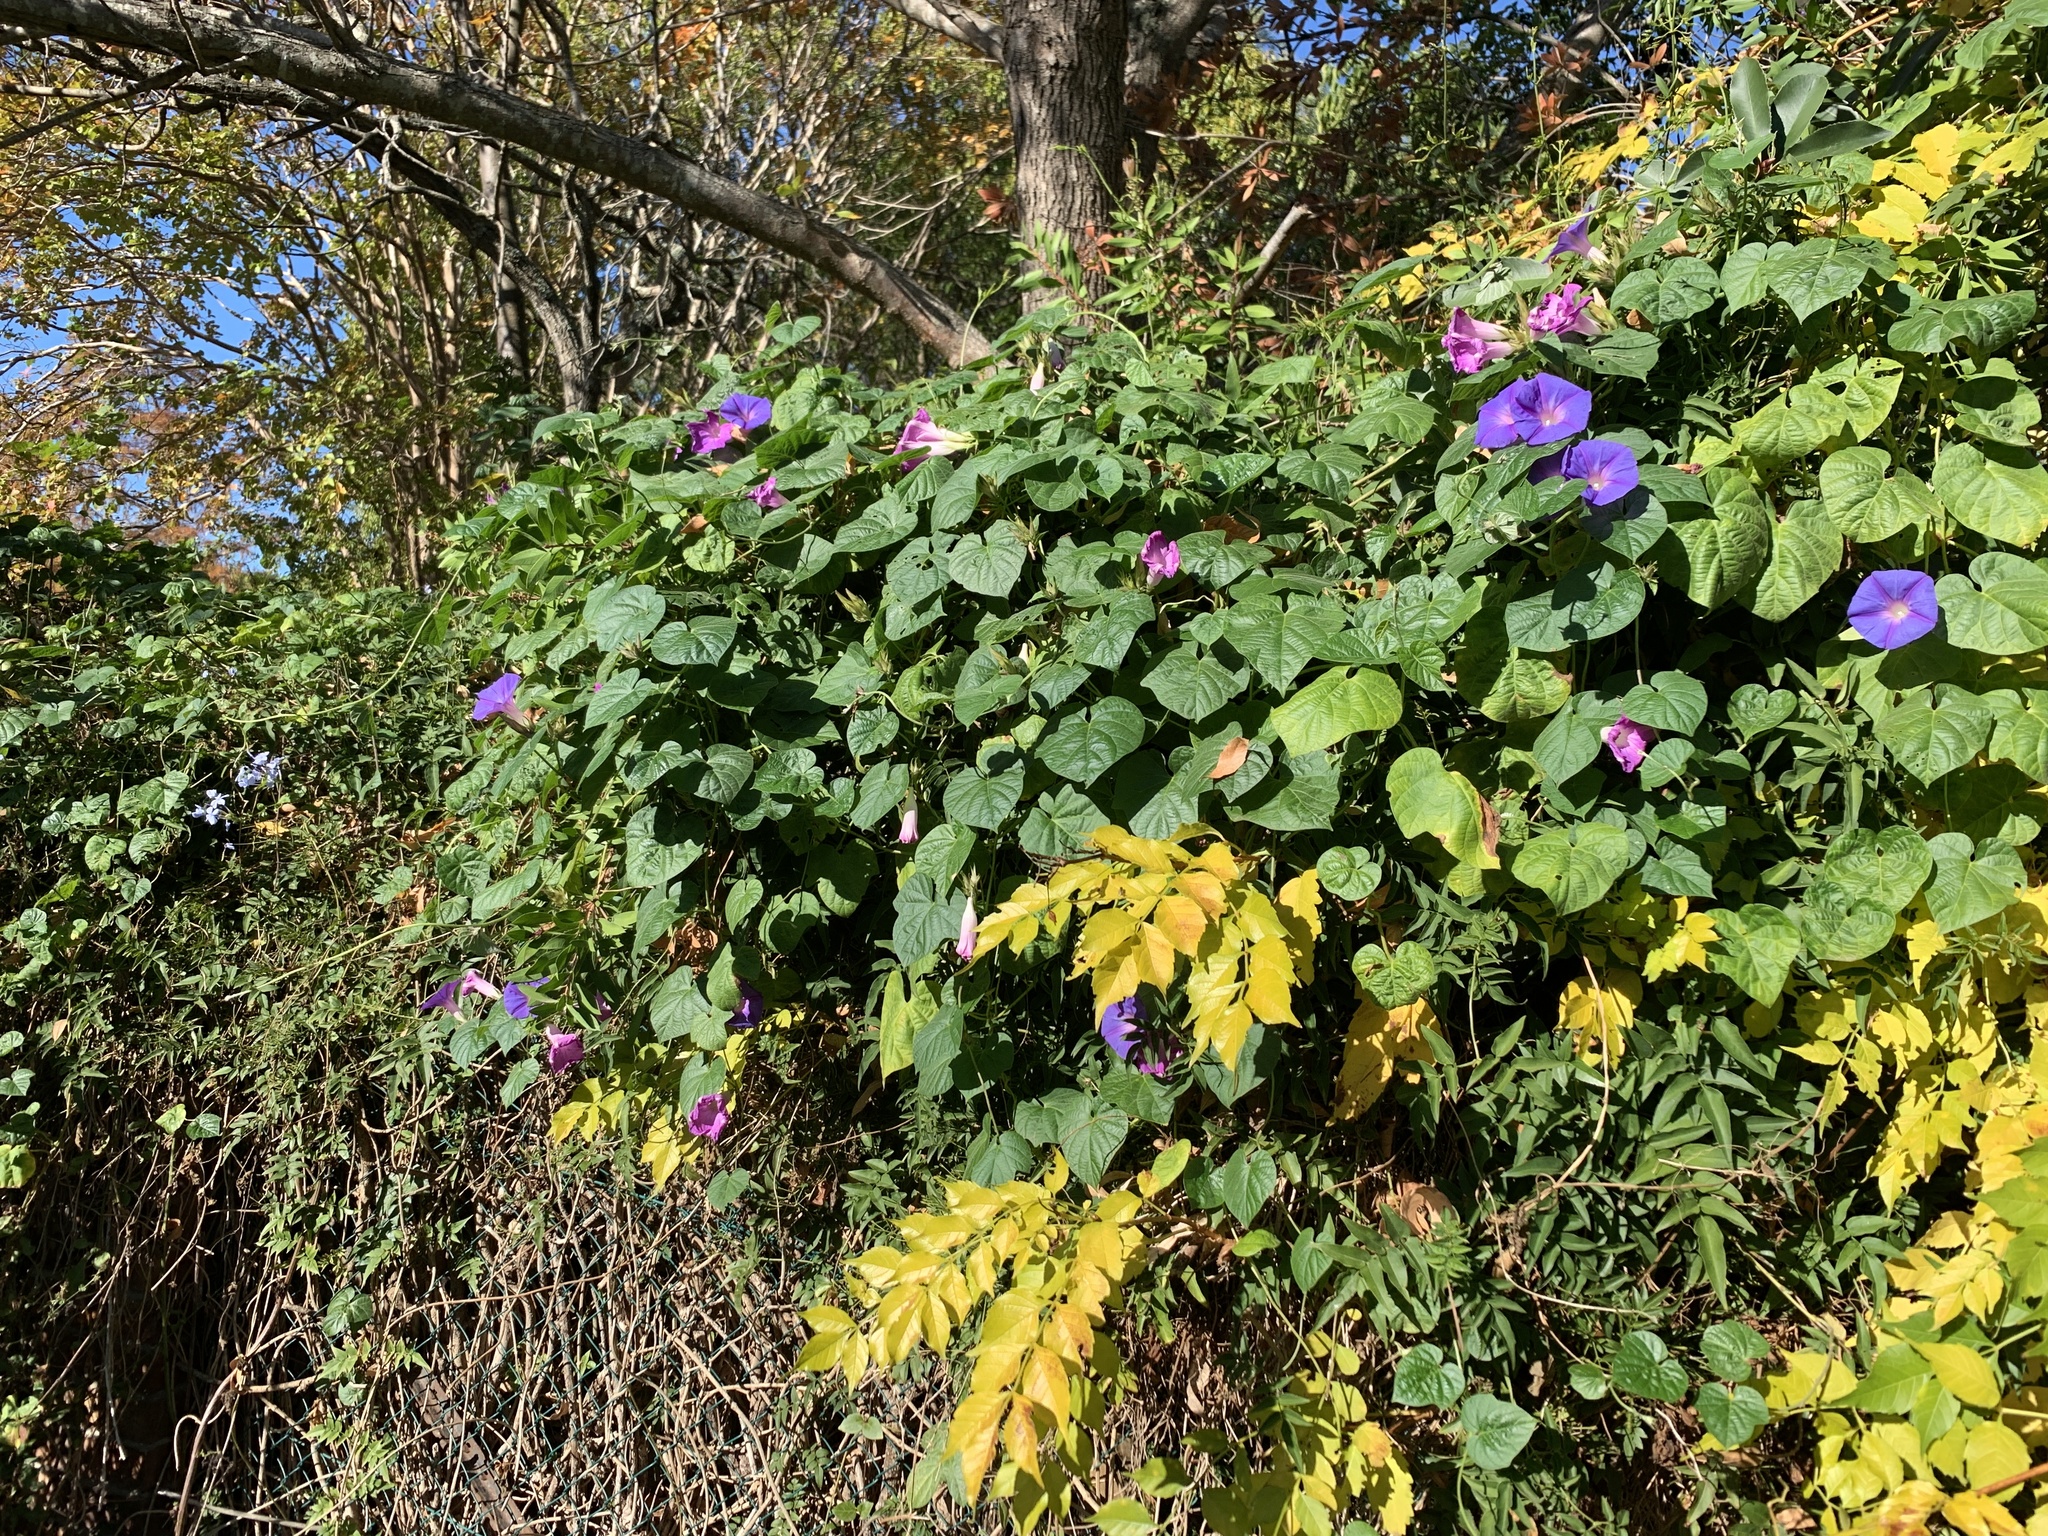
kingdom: Plantae
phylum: Tracheophyta
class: Magnoliopsida
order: Solanales
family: Convolvulaceae
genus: Ipomoea
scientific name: Ipomoea indica
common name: Blue dawnflower
